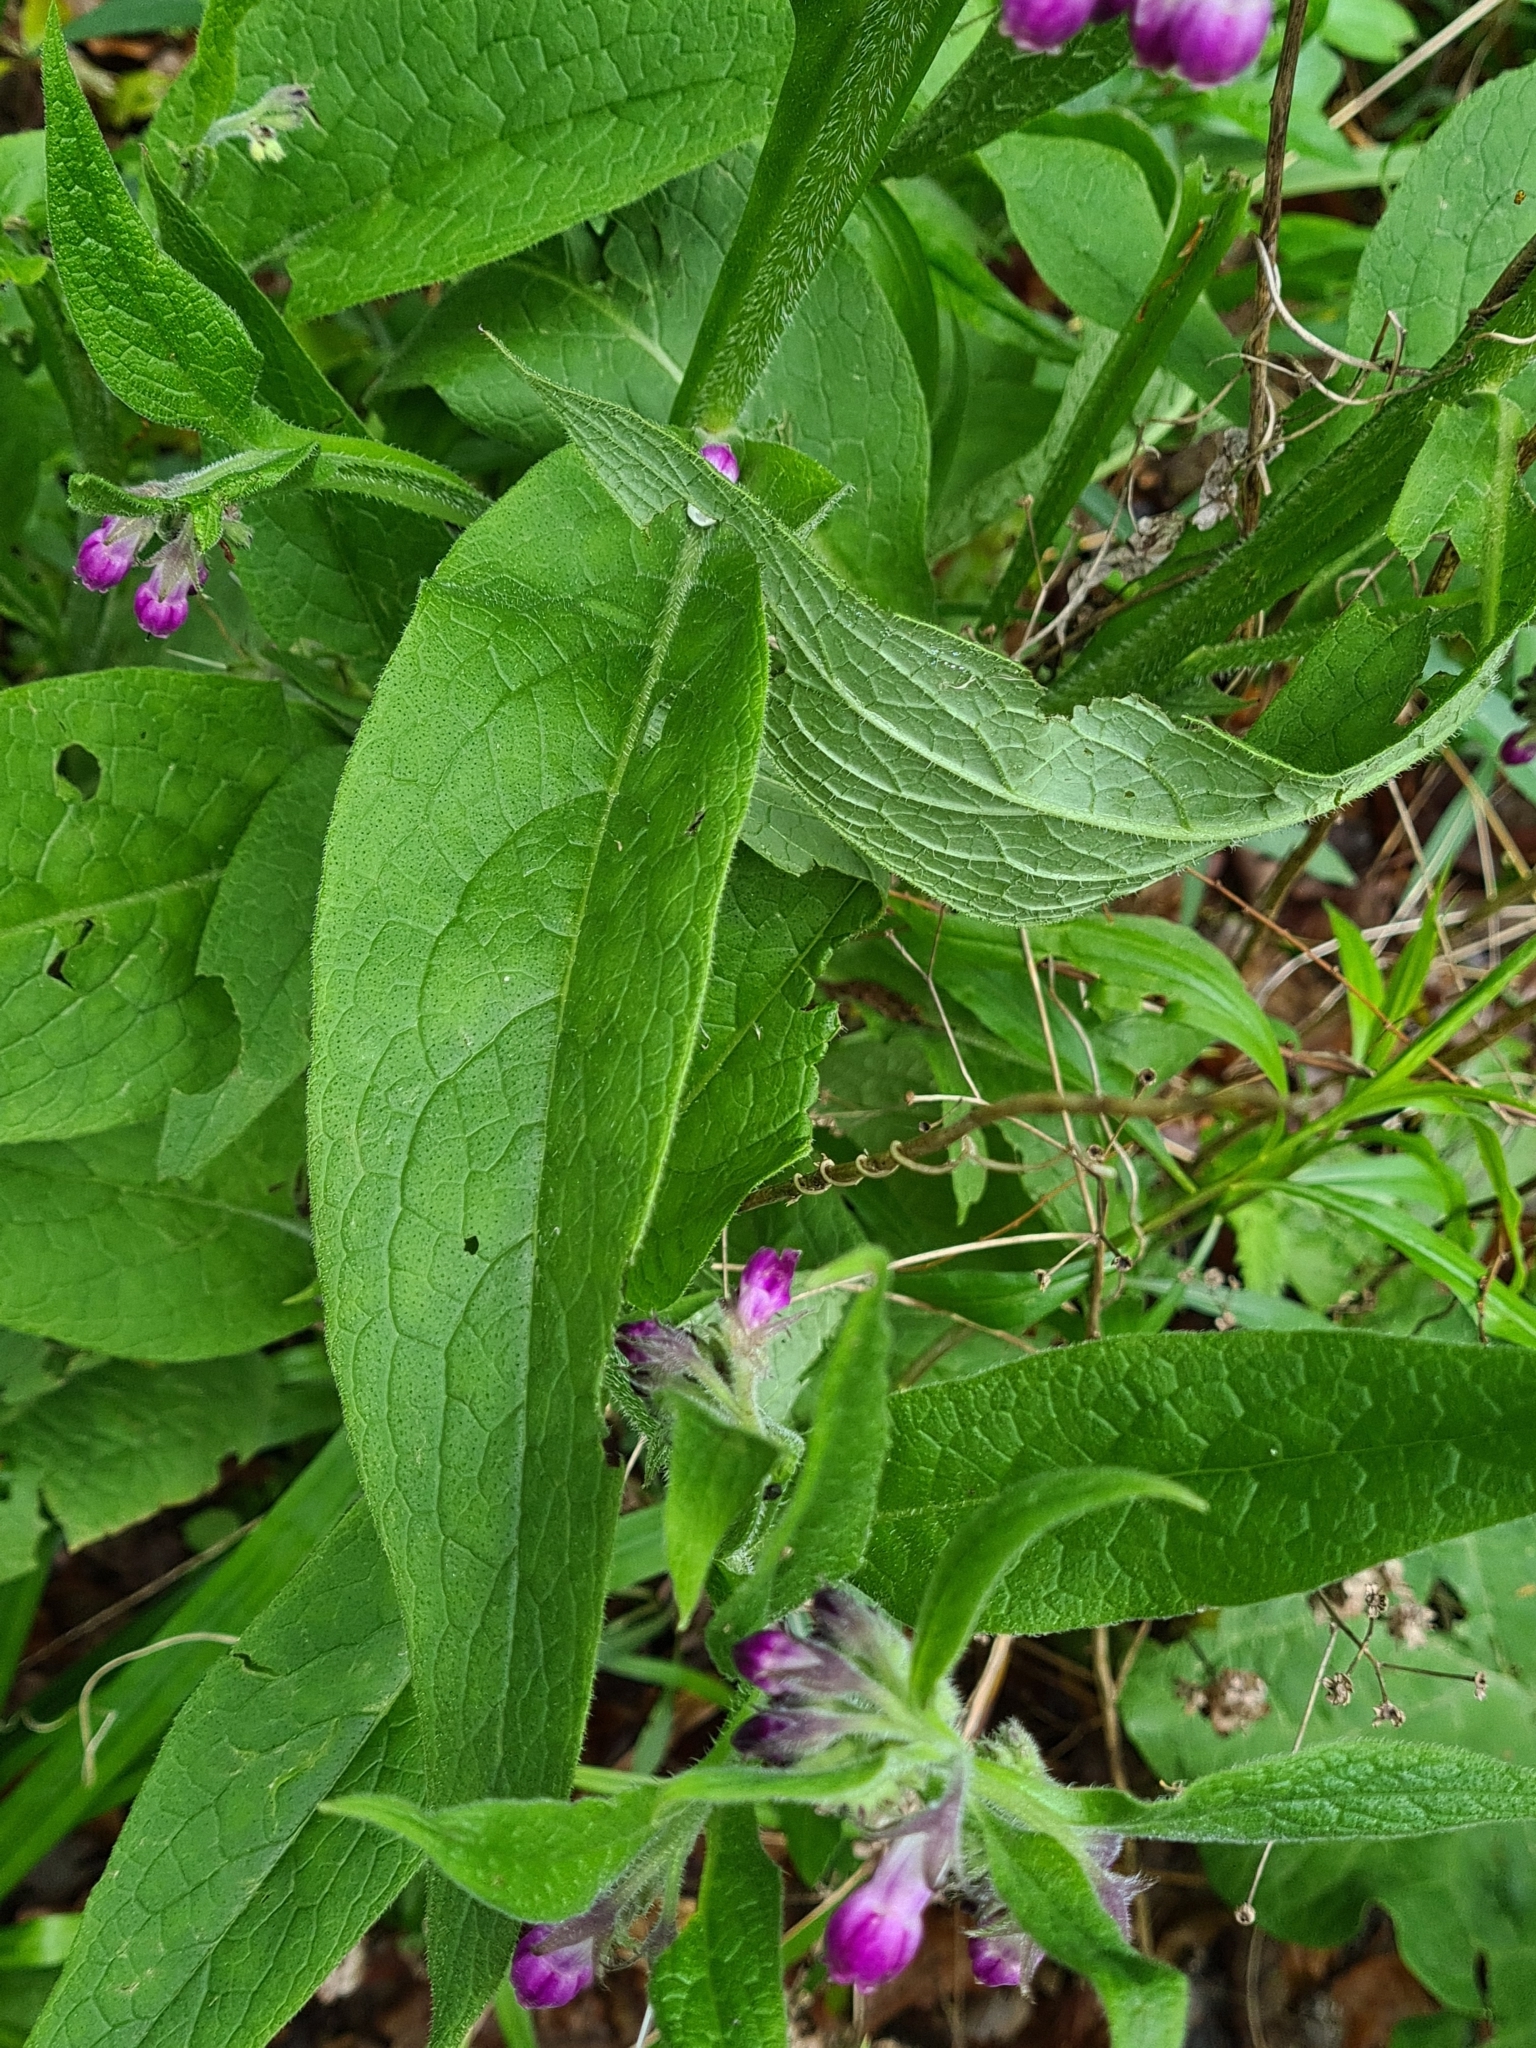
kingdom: Plantae
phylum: Tracheophyta
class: Magnoliopsida
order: Boraginales
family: Boraginaceae
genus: Symphytum
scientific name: Symphytum officinale
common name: Common comfrey
